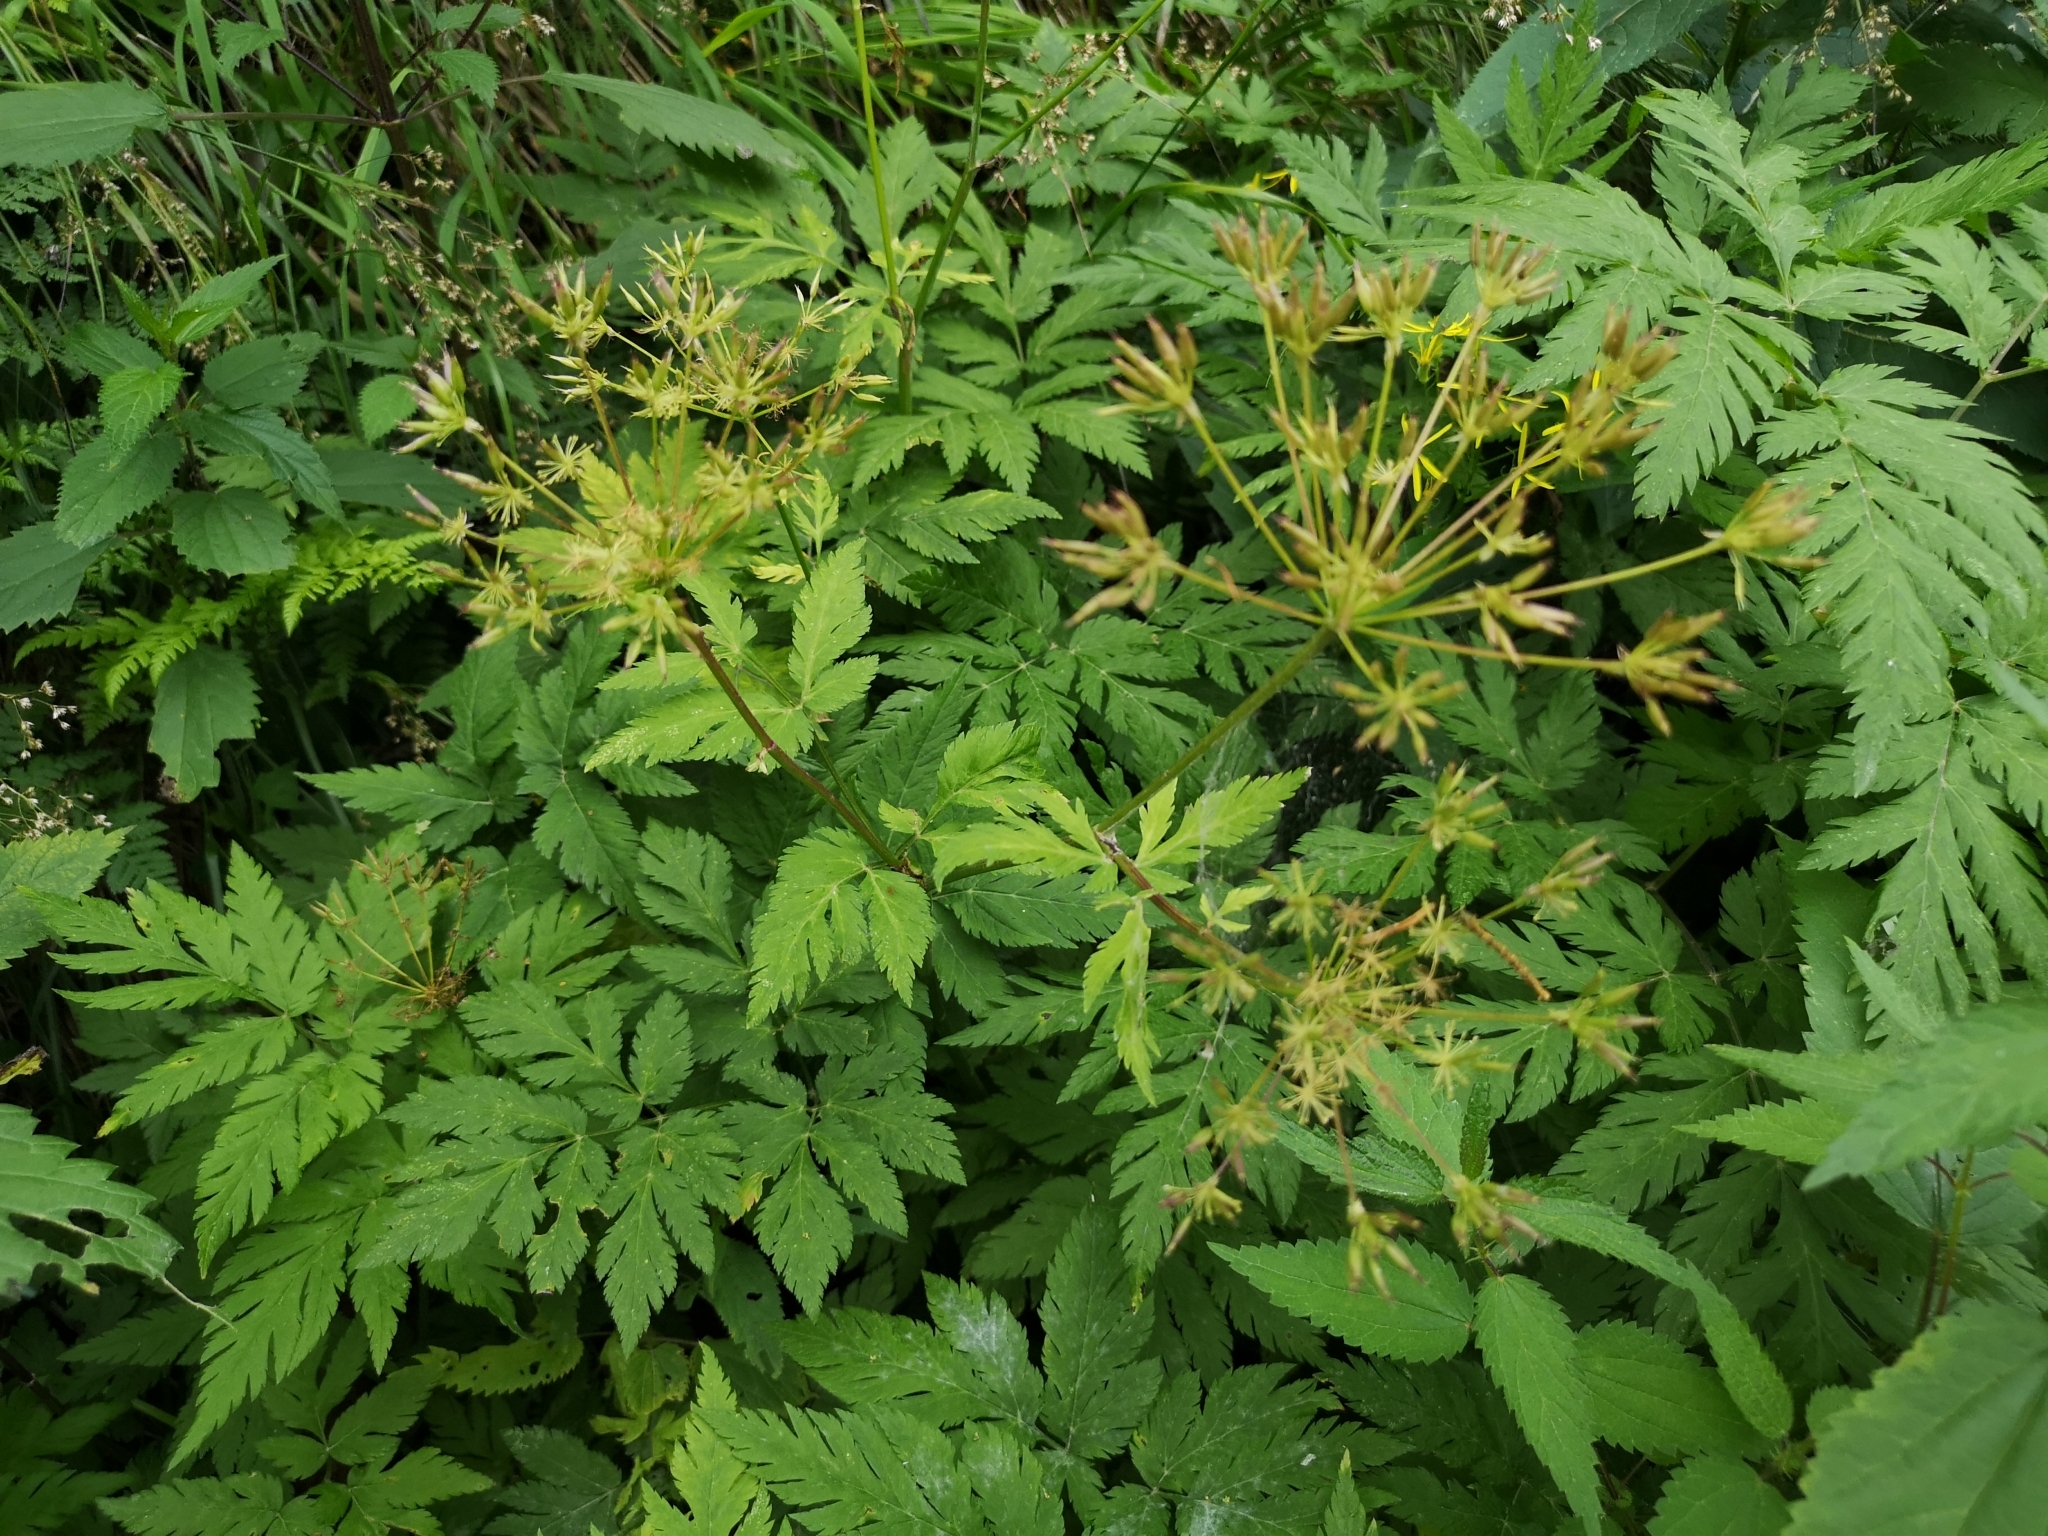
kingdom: Plantae
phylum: Tracheophyta
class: Magnoliopsida
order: Apiales
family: Apiaceae
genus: Chaerophyllum
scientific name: Chaerophyllum hirsutum
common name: Hairy chervil
